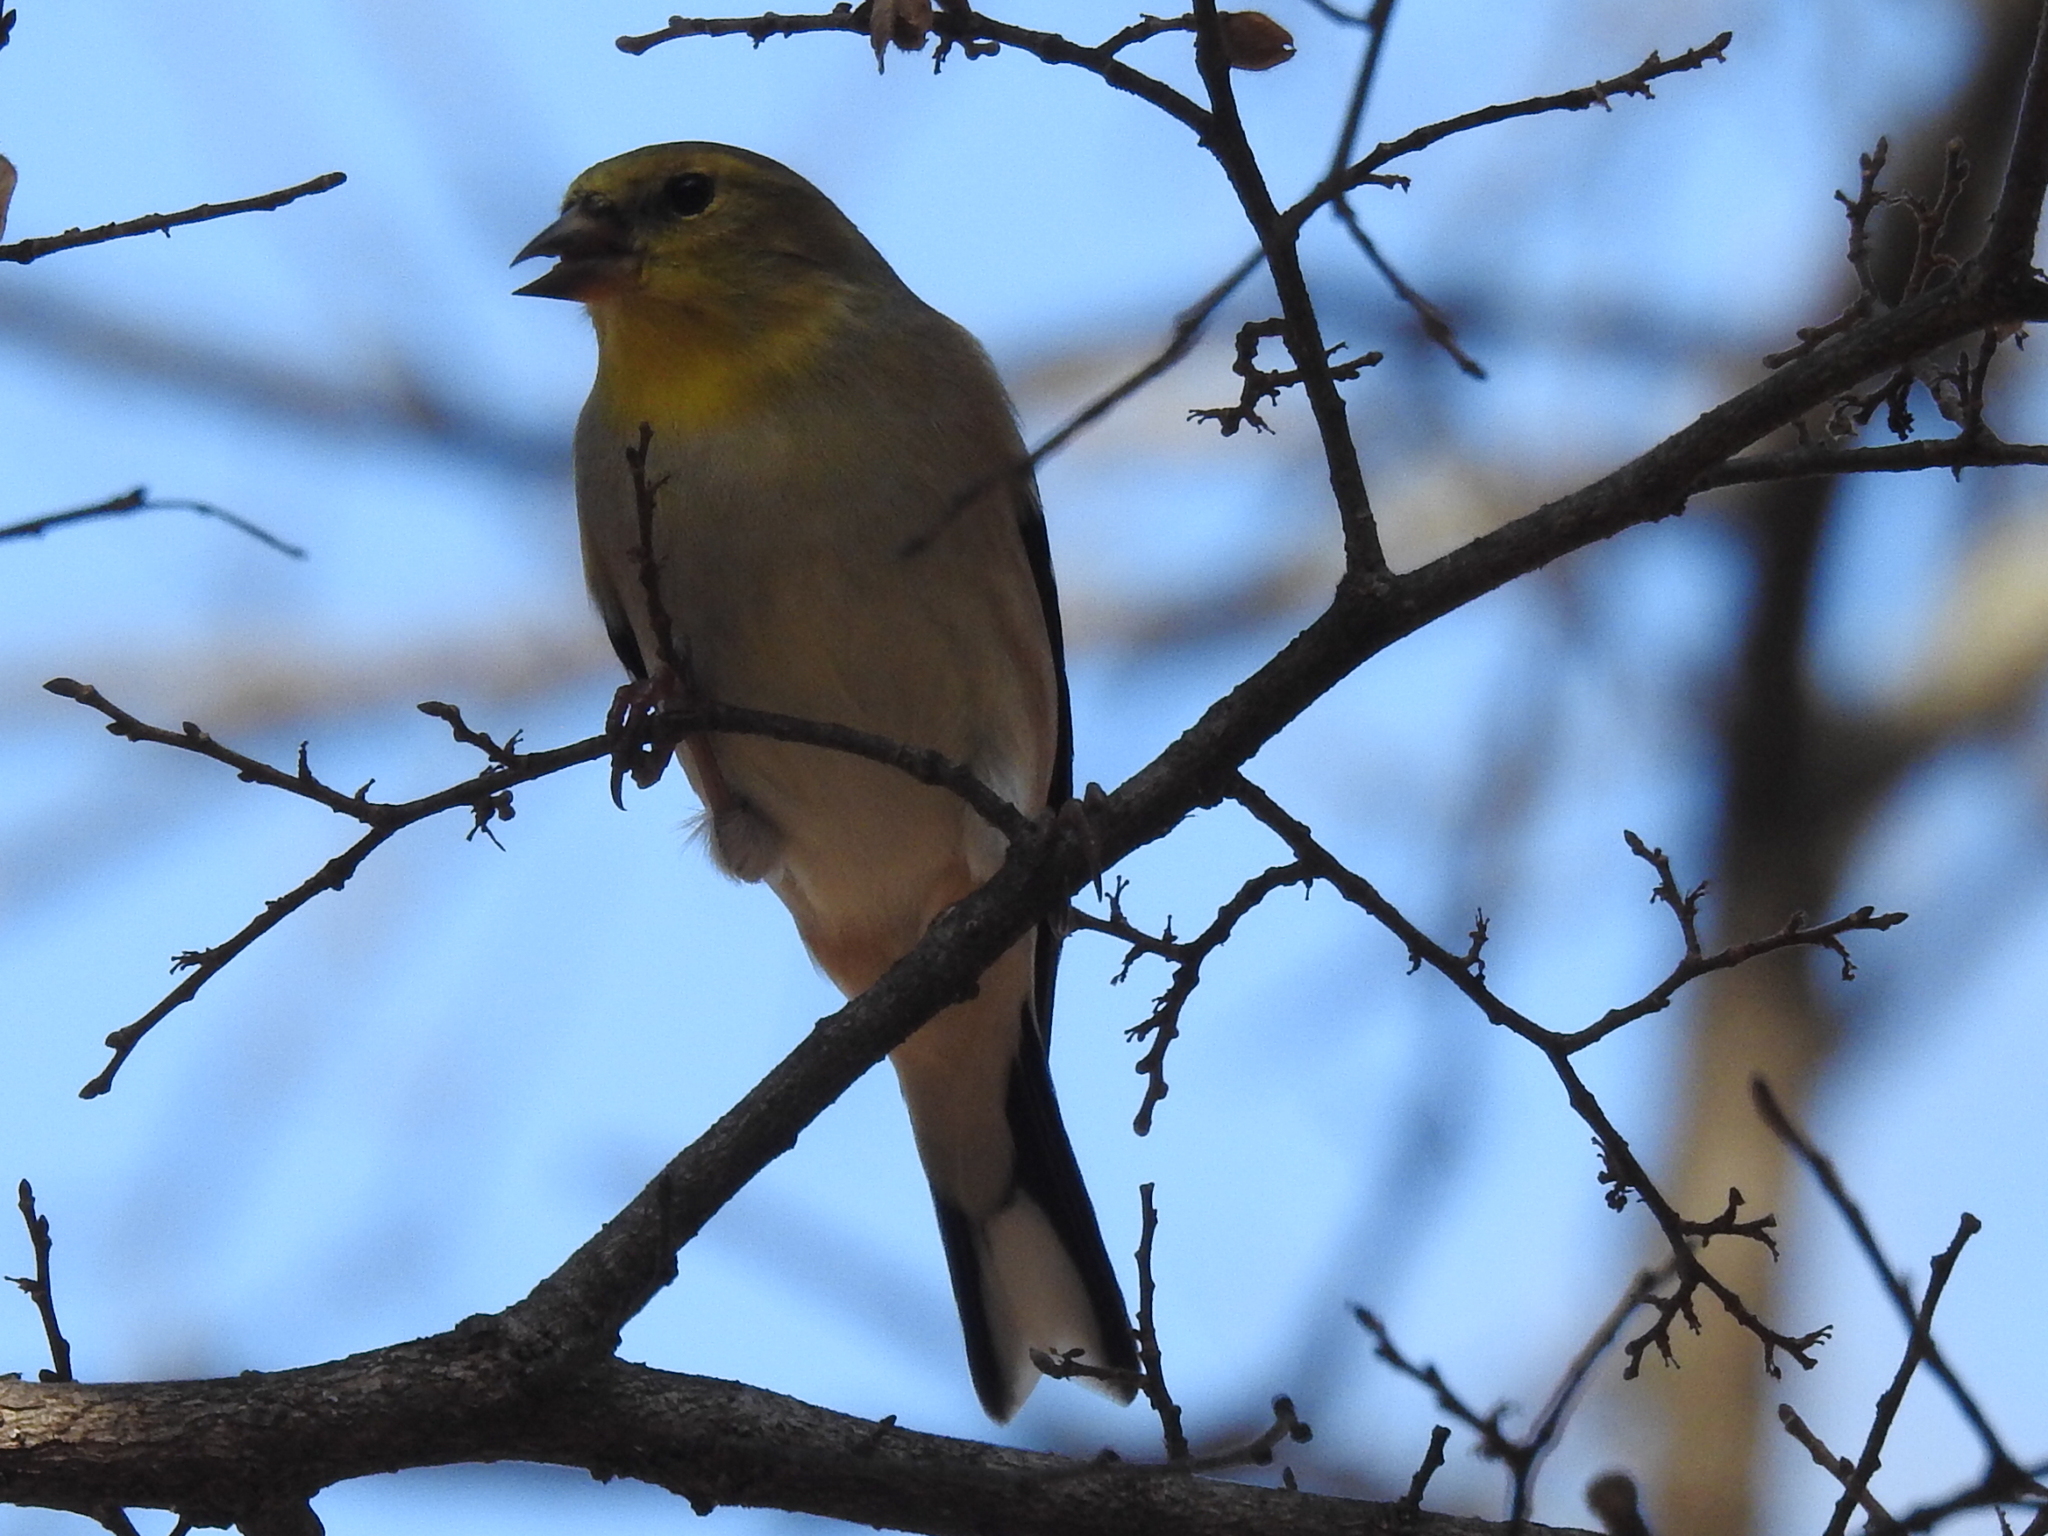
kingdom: Animalia
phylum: Chordata
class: Aves
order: Passeriformes
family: Fringillidae
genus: Spinus
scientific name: Spinus tristis
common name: American goldfinch
